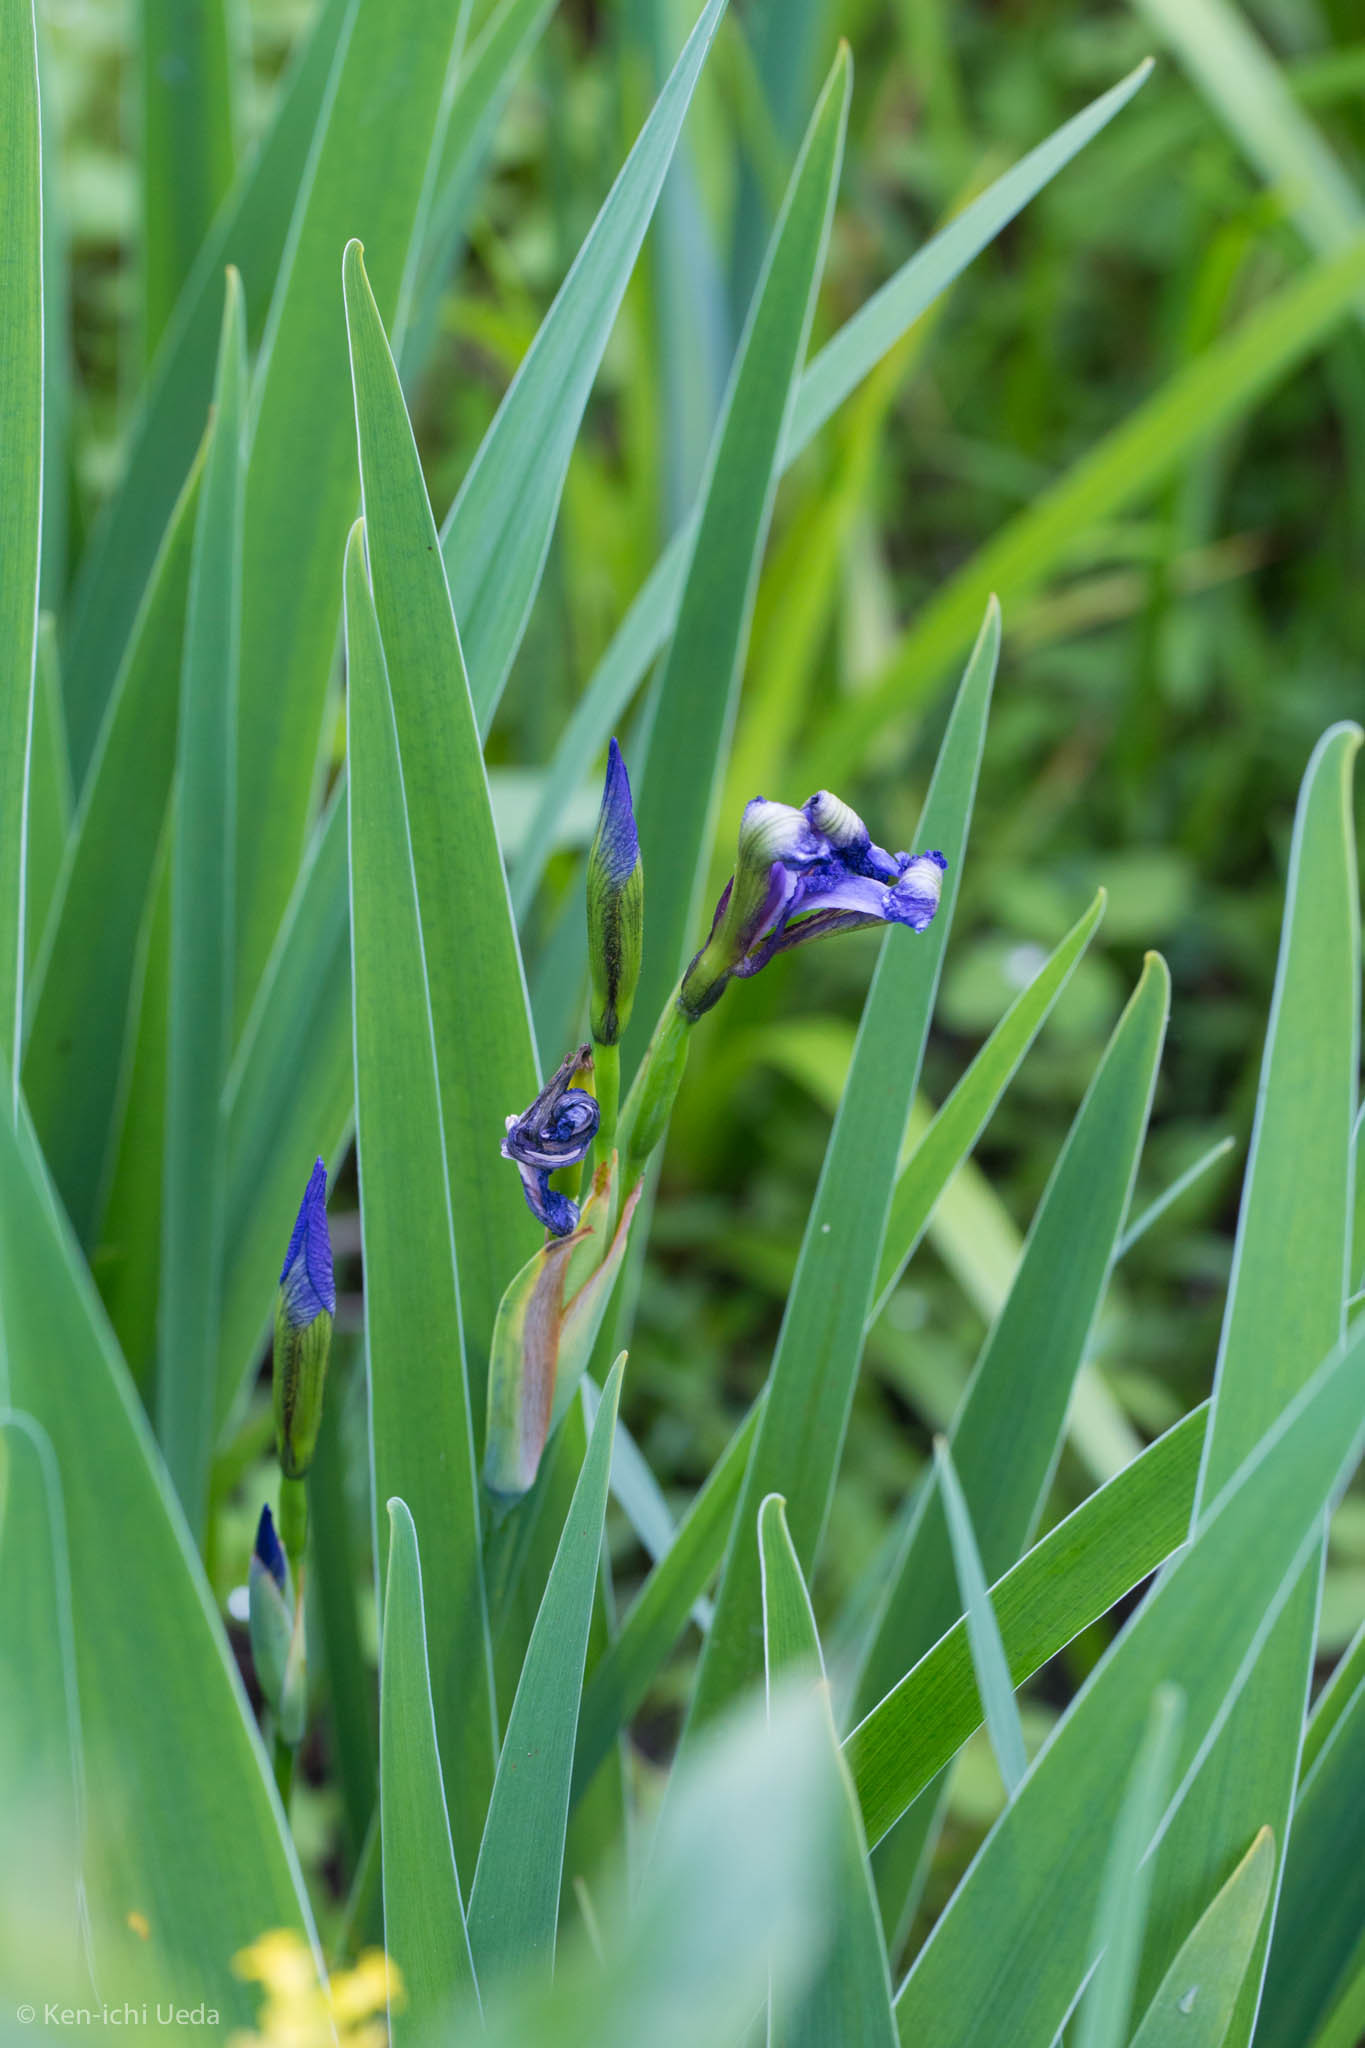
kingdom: Plantae
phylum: Tracheophyta
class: Liliopsida
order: Asparagales
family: Iridaceae
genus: Iris
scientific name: Iris versicolor
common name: Purple iris
